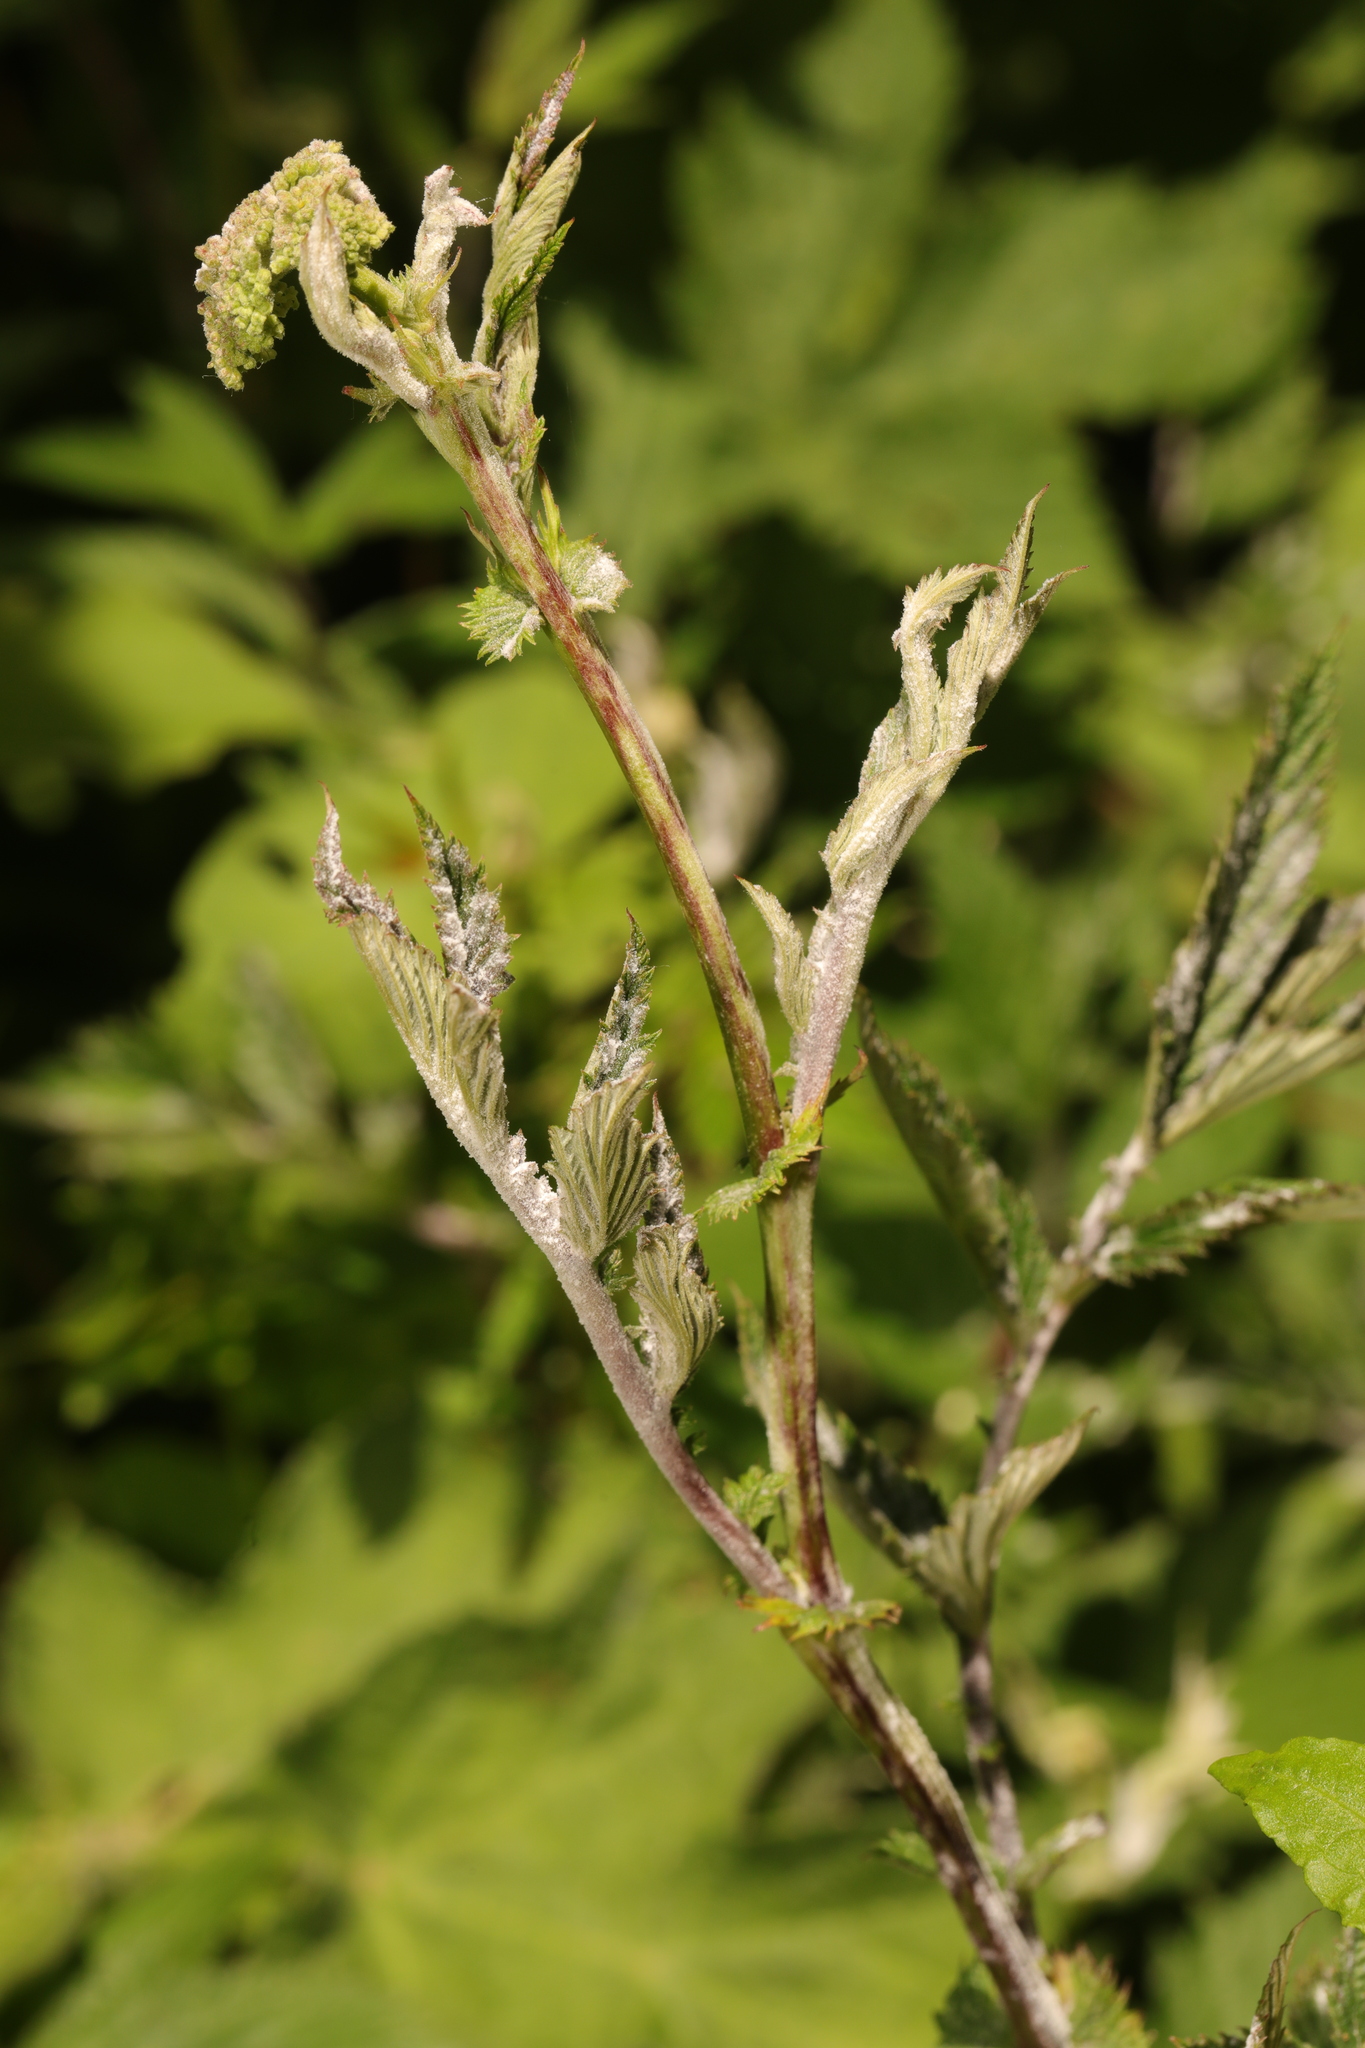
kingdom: Plantae
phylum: Tracheophyta
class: Magnoliopsida
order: Rosales
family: Rosaceae
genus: Filipendula
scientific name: Filipendula ulmaria
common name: Meadowsweet
